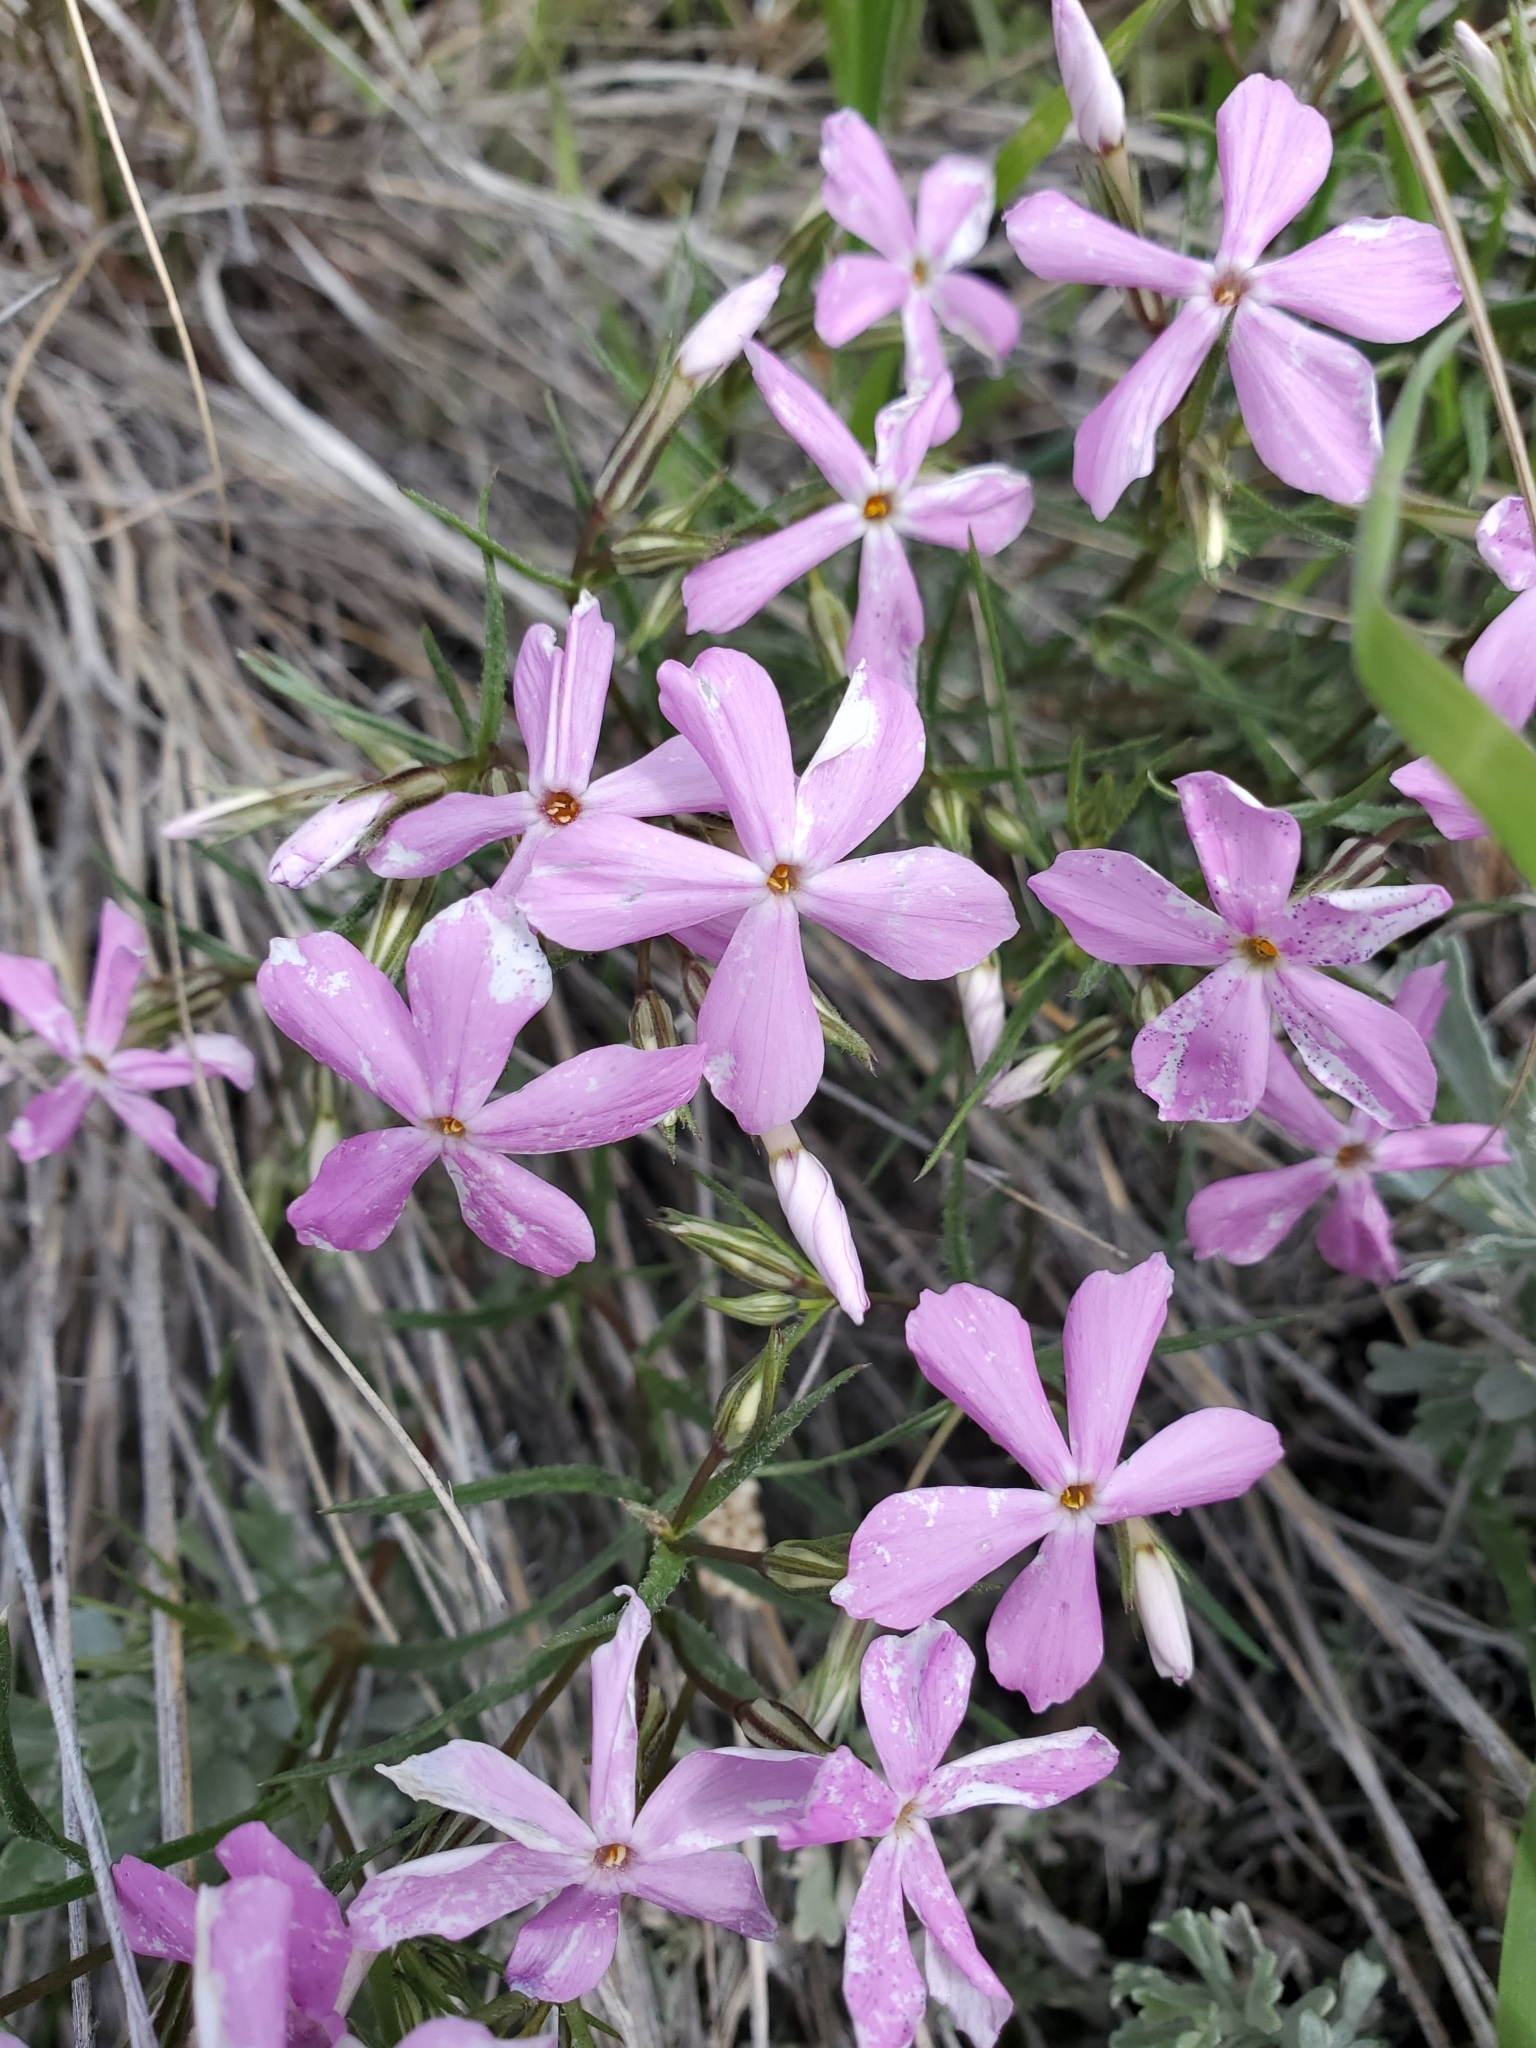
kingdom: Plantae
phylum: Tracheophyta
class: Magnoliopsida
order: Ericales
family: Polemoniaceae
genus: Phlox
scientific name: Phlox longifolia
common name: Longleaf phlox
